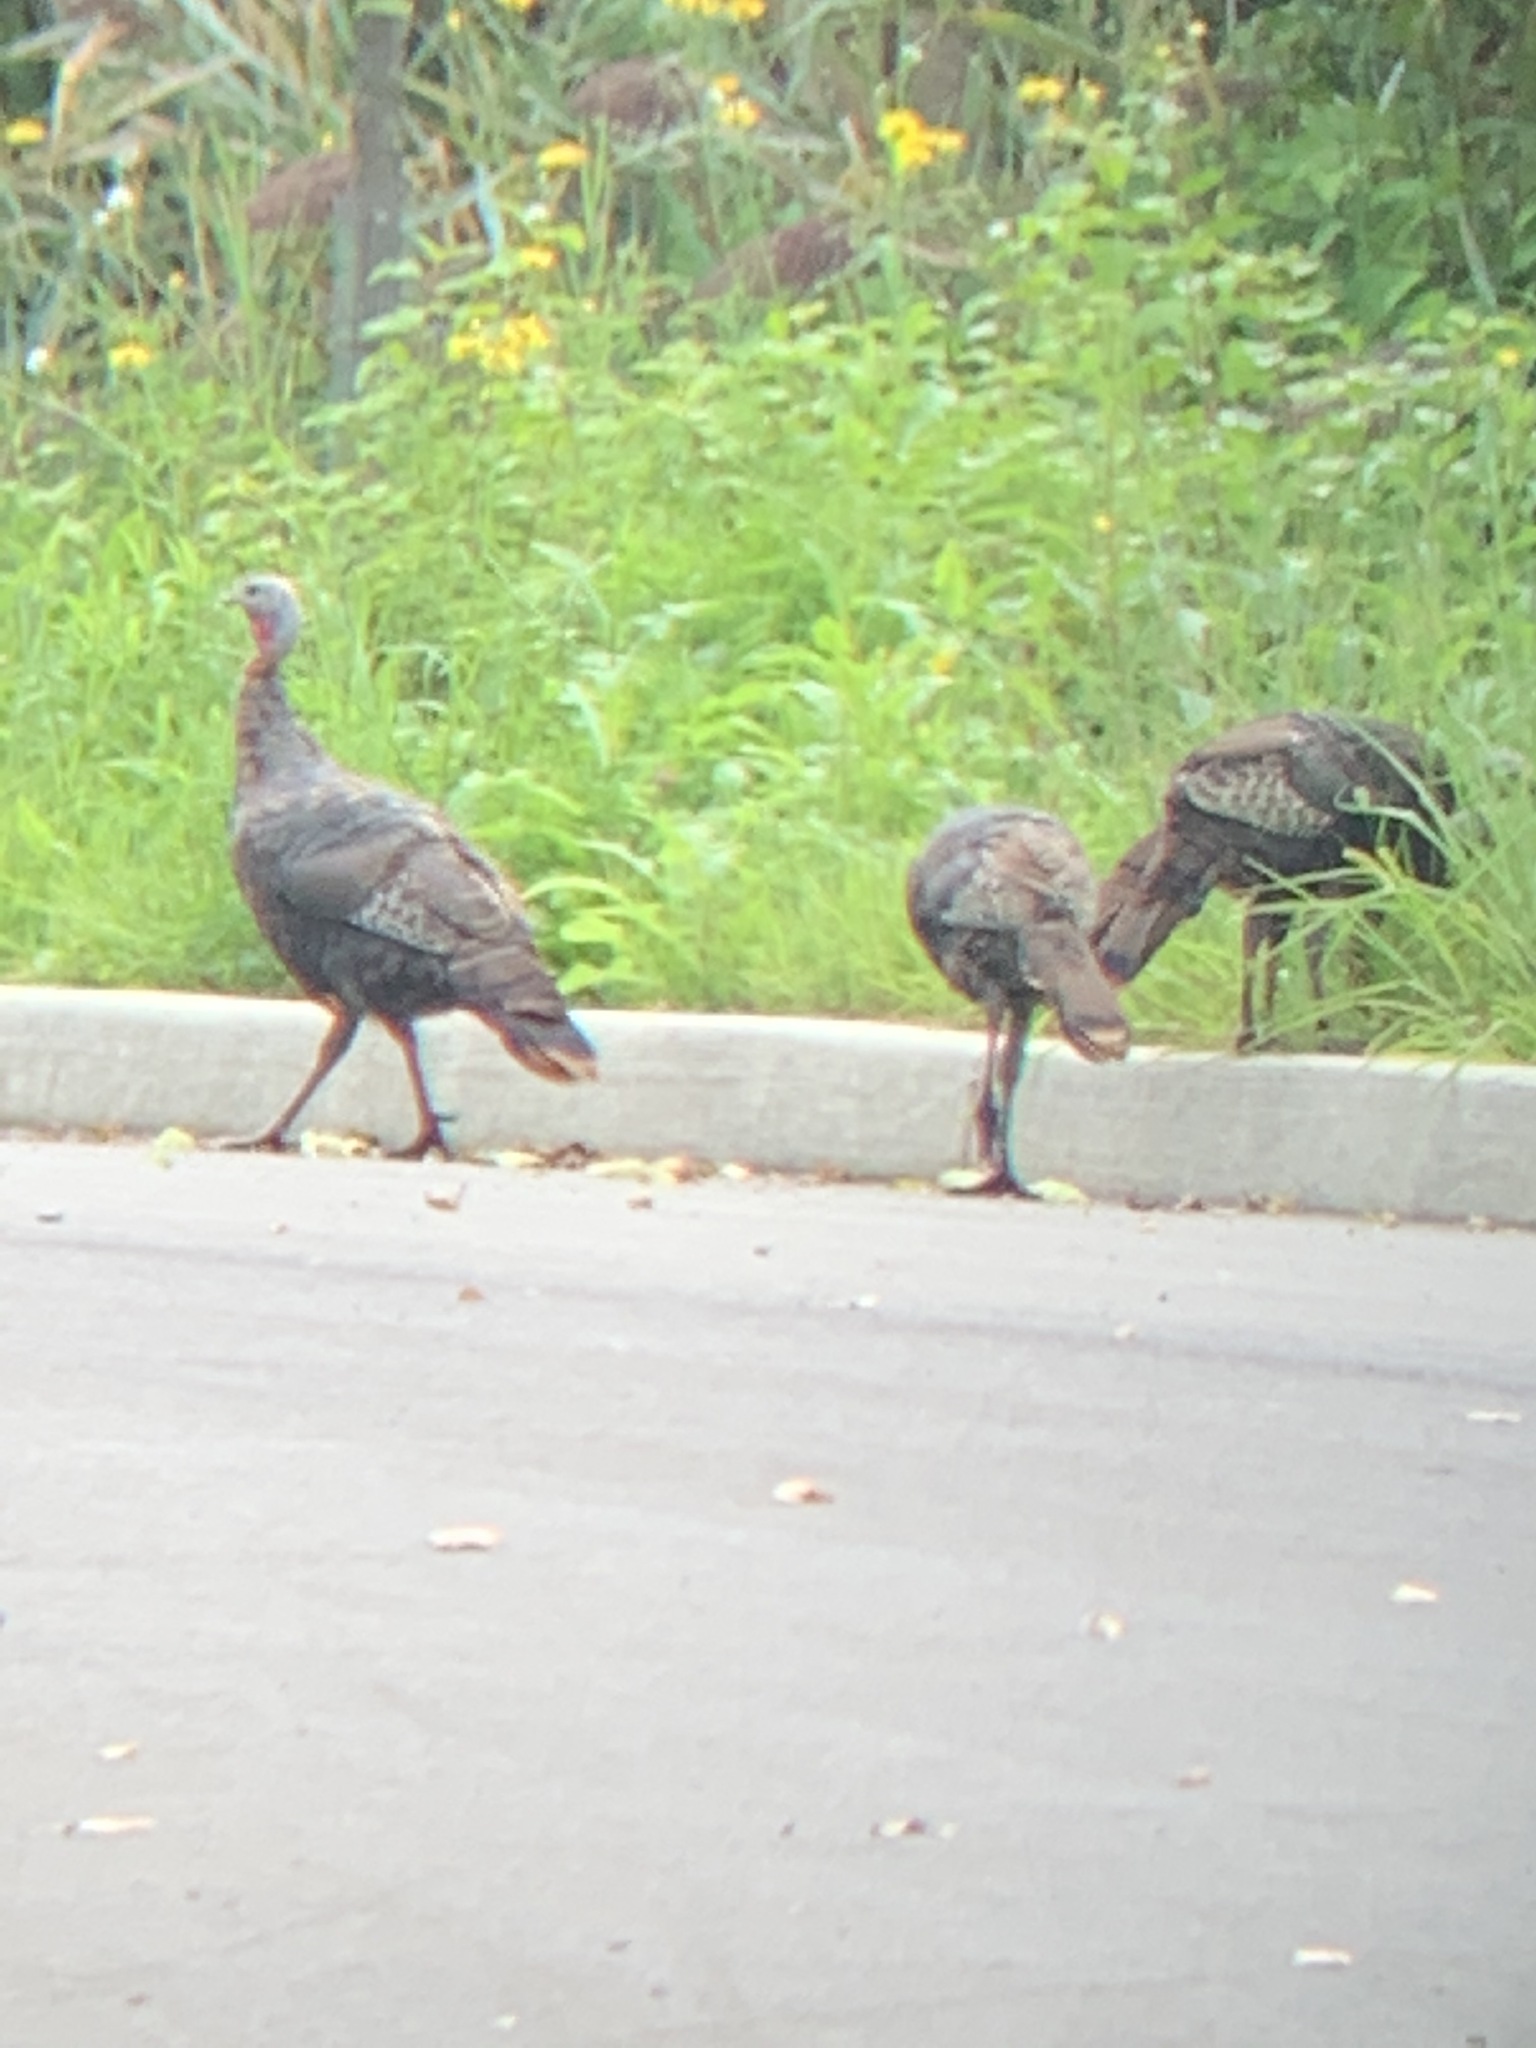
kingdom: Animalia
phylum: Chordata
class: Aves
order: Galliformes
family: Phasianidae
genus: Meleagris
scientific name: Meleagris gallopavo
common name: Wild turkey
